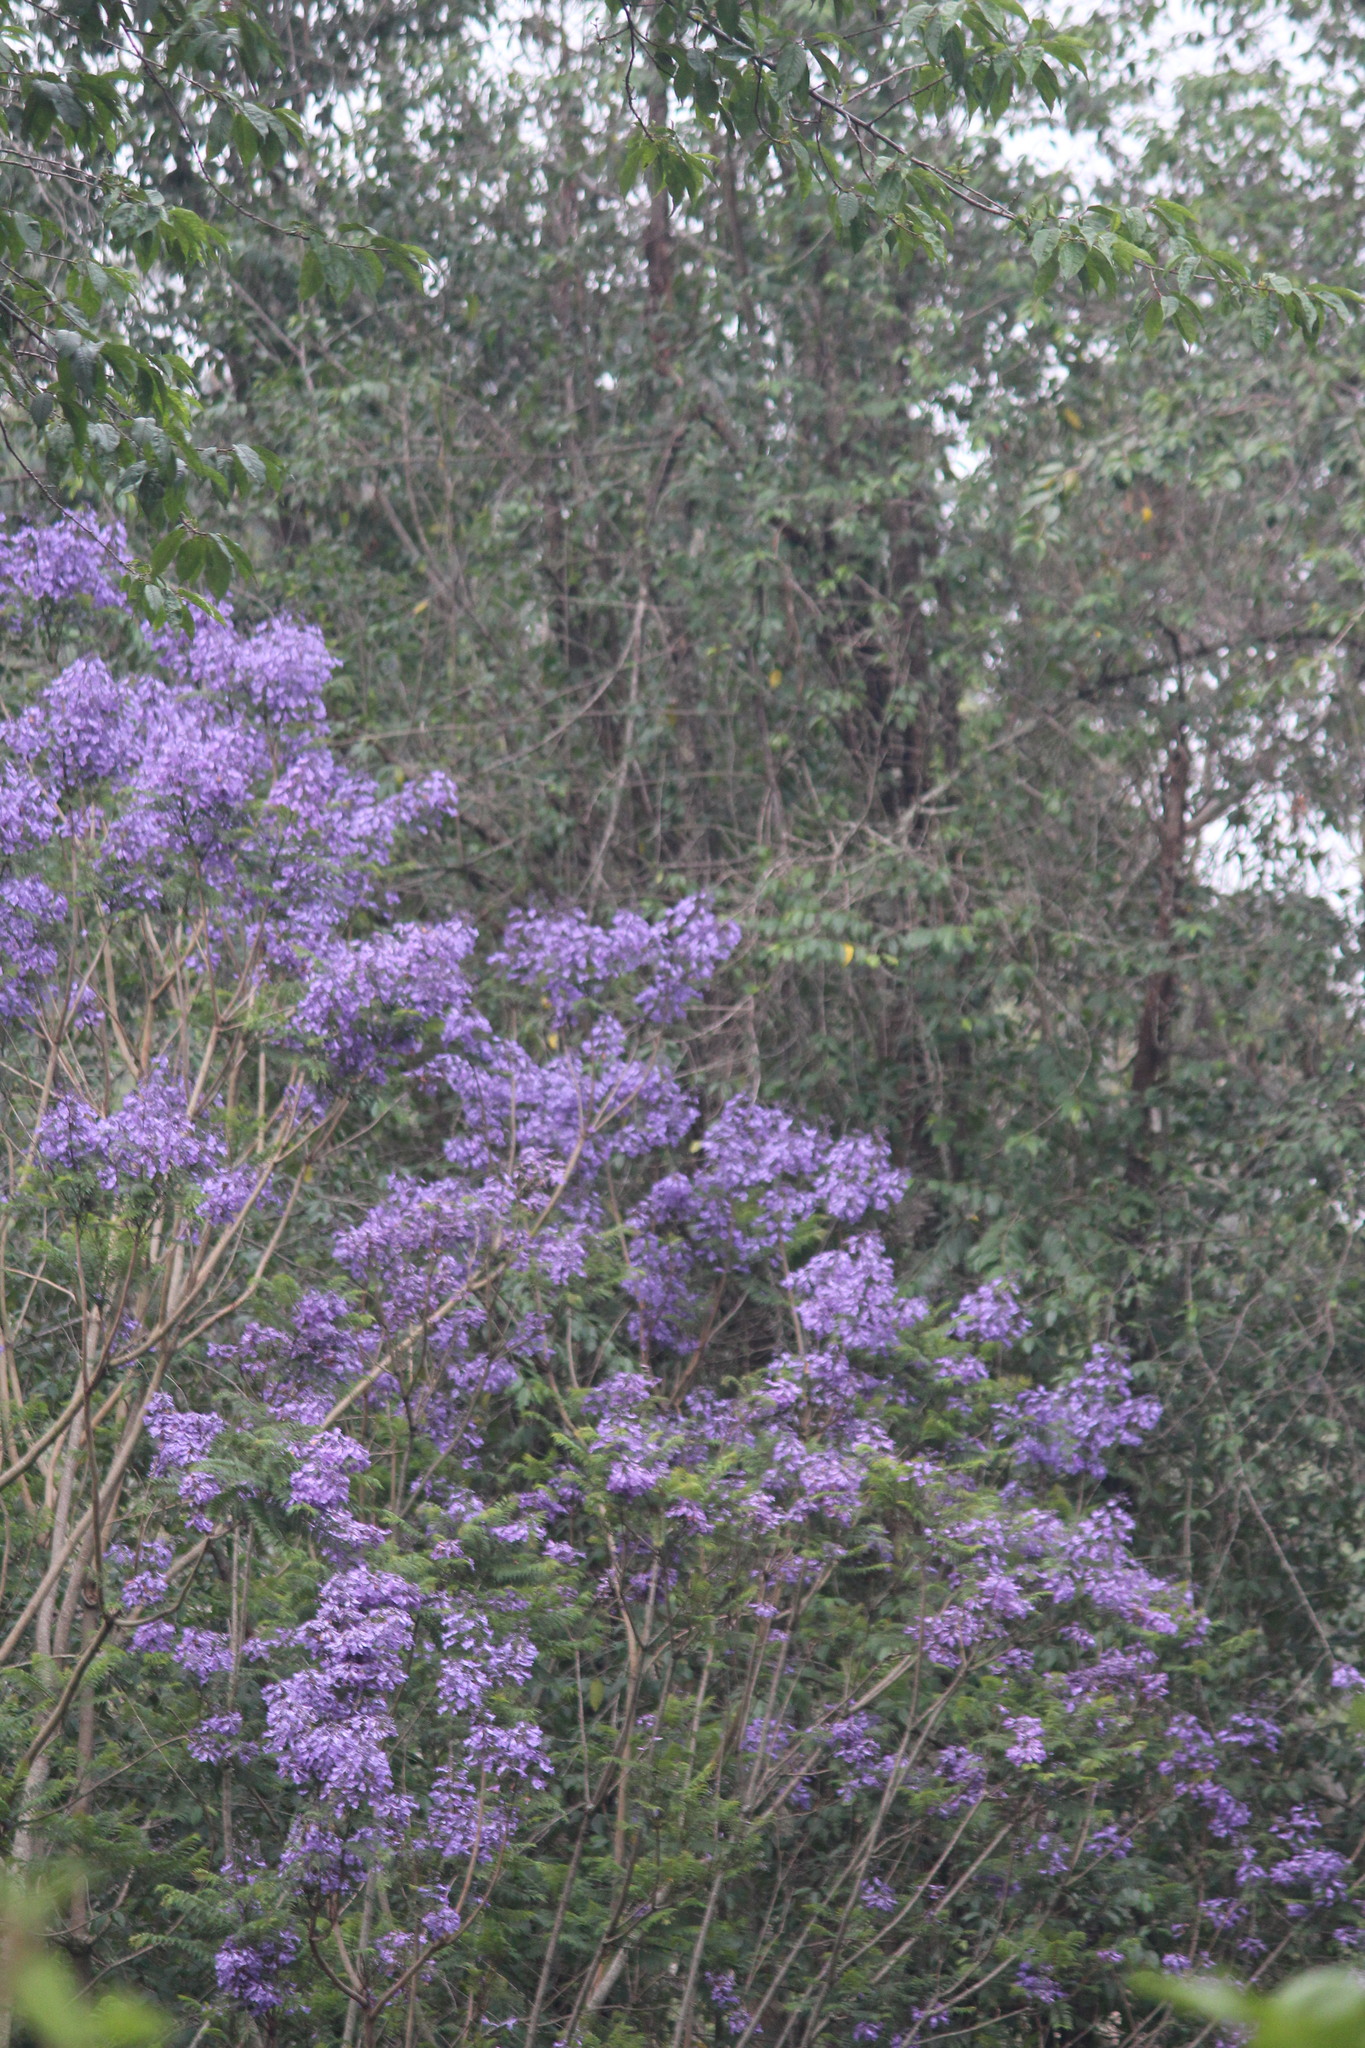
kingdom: Plantae
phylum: Tracheophyta
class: Magnoliopsida
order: Lamiales
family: Bignoniaceae
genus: Jacaranda
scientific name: Jacaranda mimosifolia
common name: Black poui
